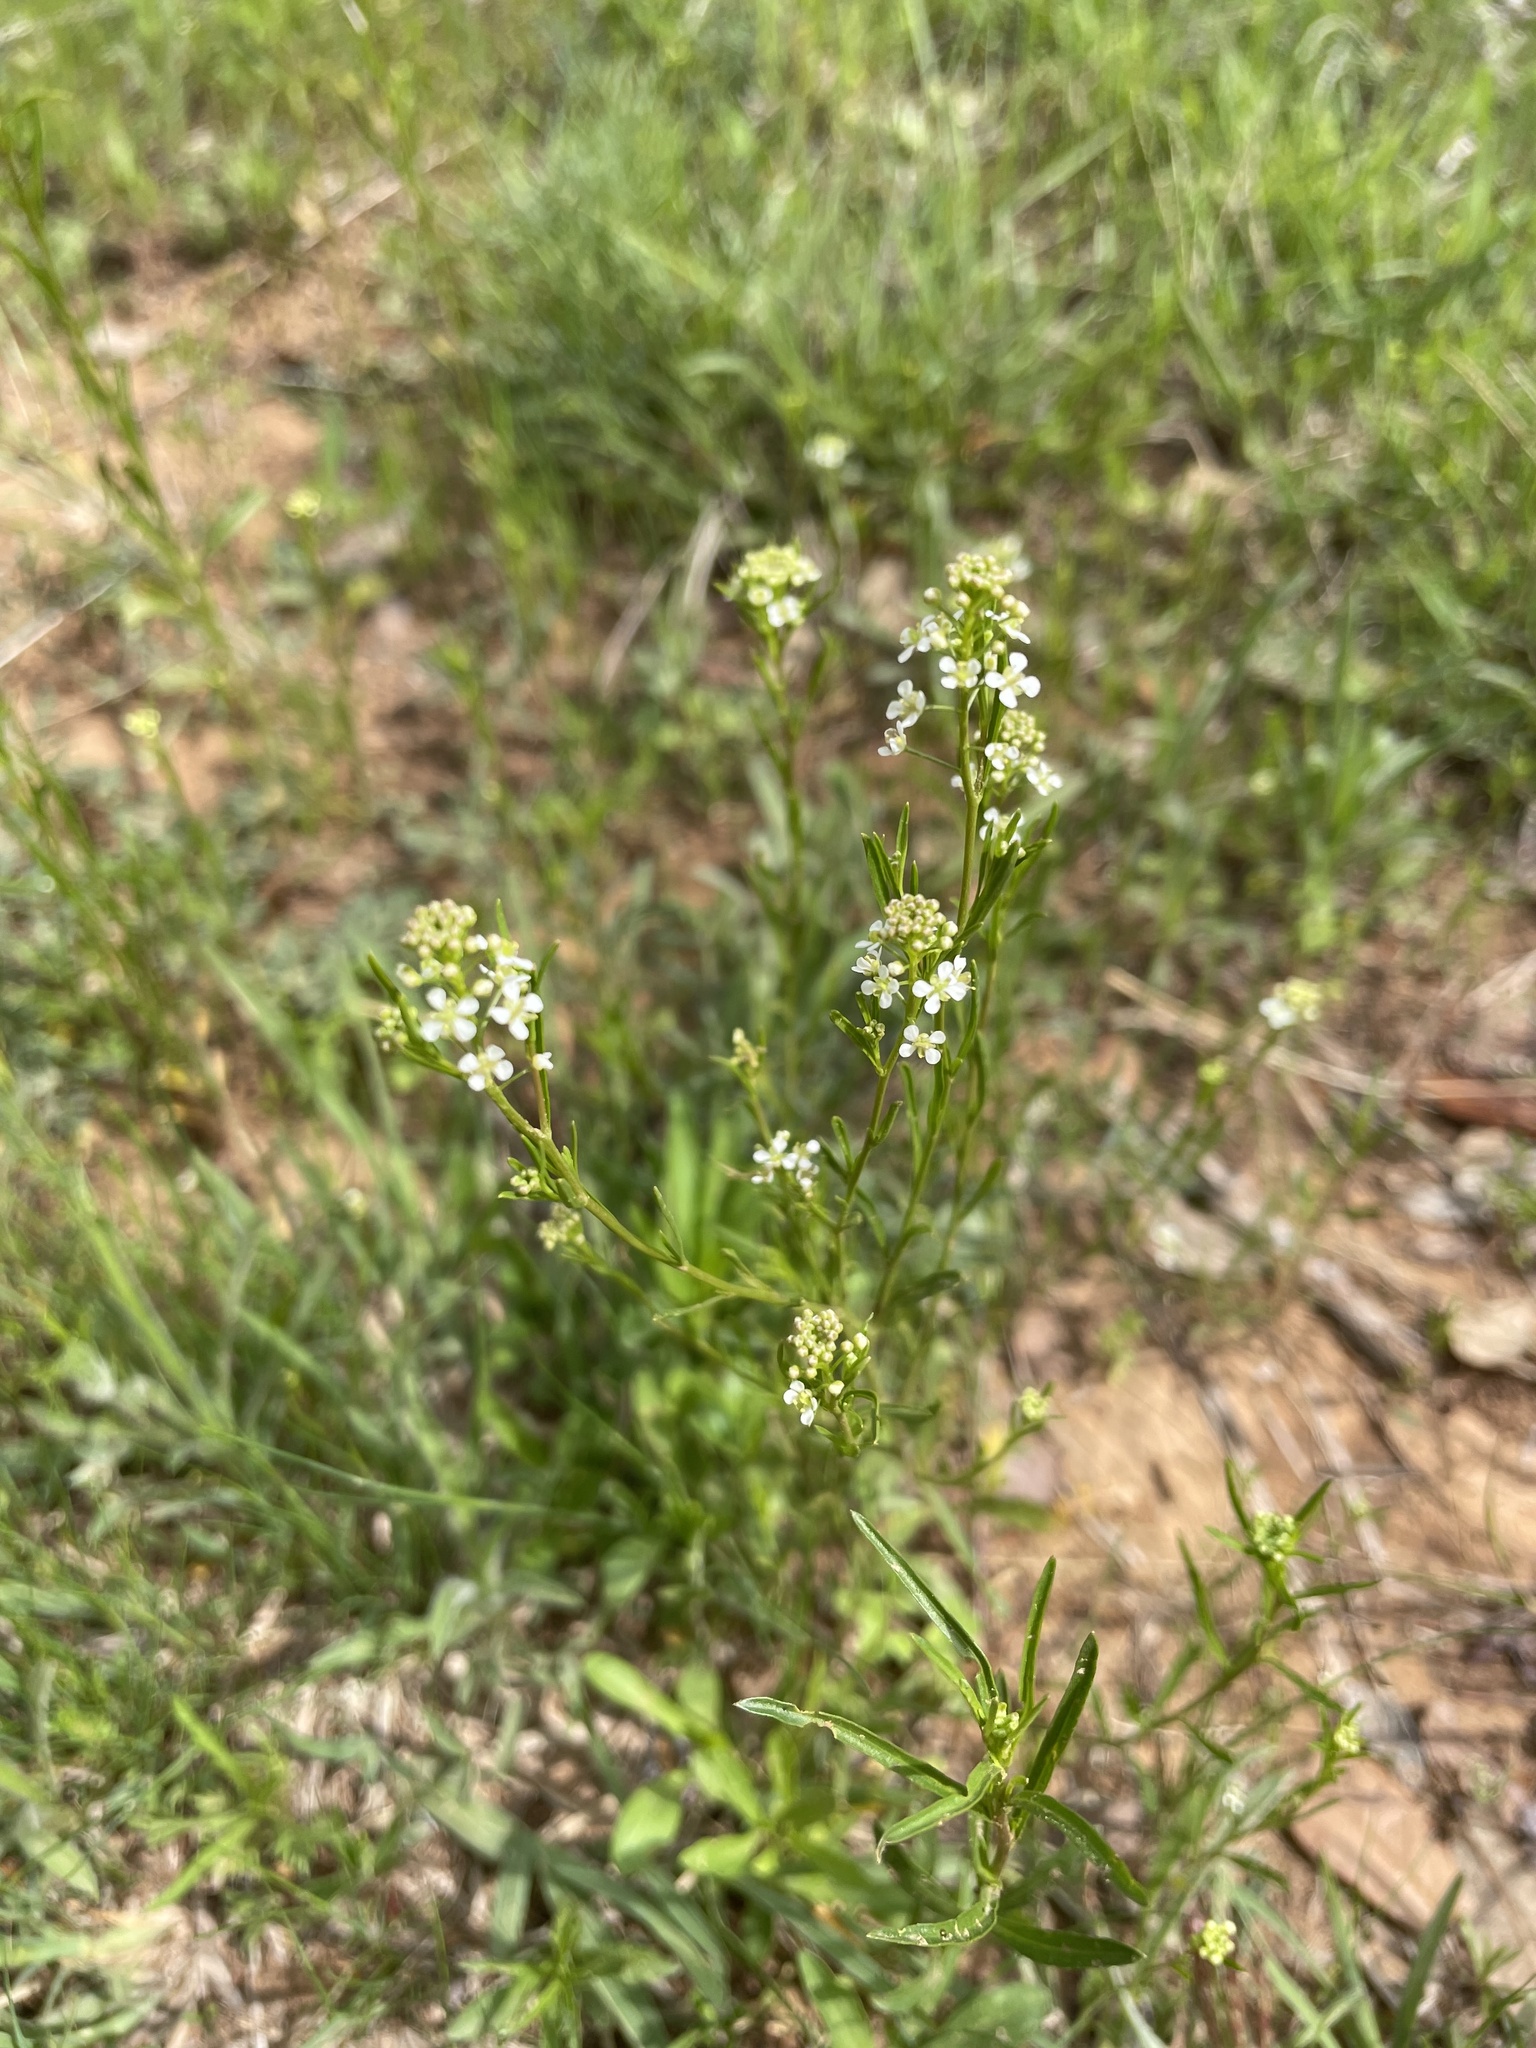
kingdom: Plantae
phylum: Tracheophyta
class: Magnoliopsida
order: Brassicales
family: Brassicaceae
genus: Lepidium
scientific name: Lepidium virginicum
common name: Least pepperwort
